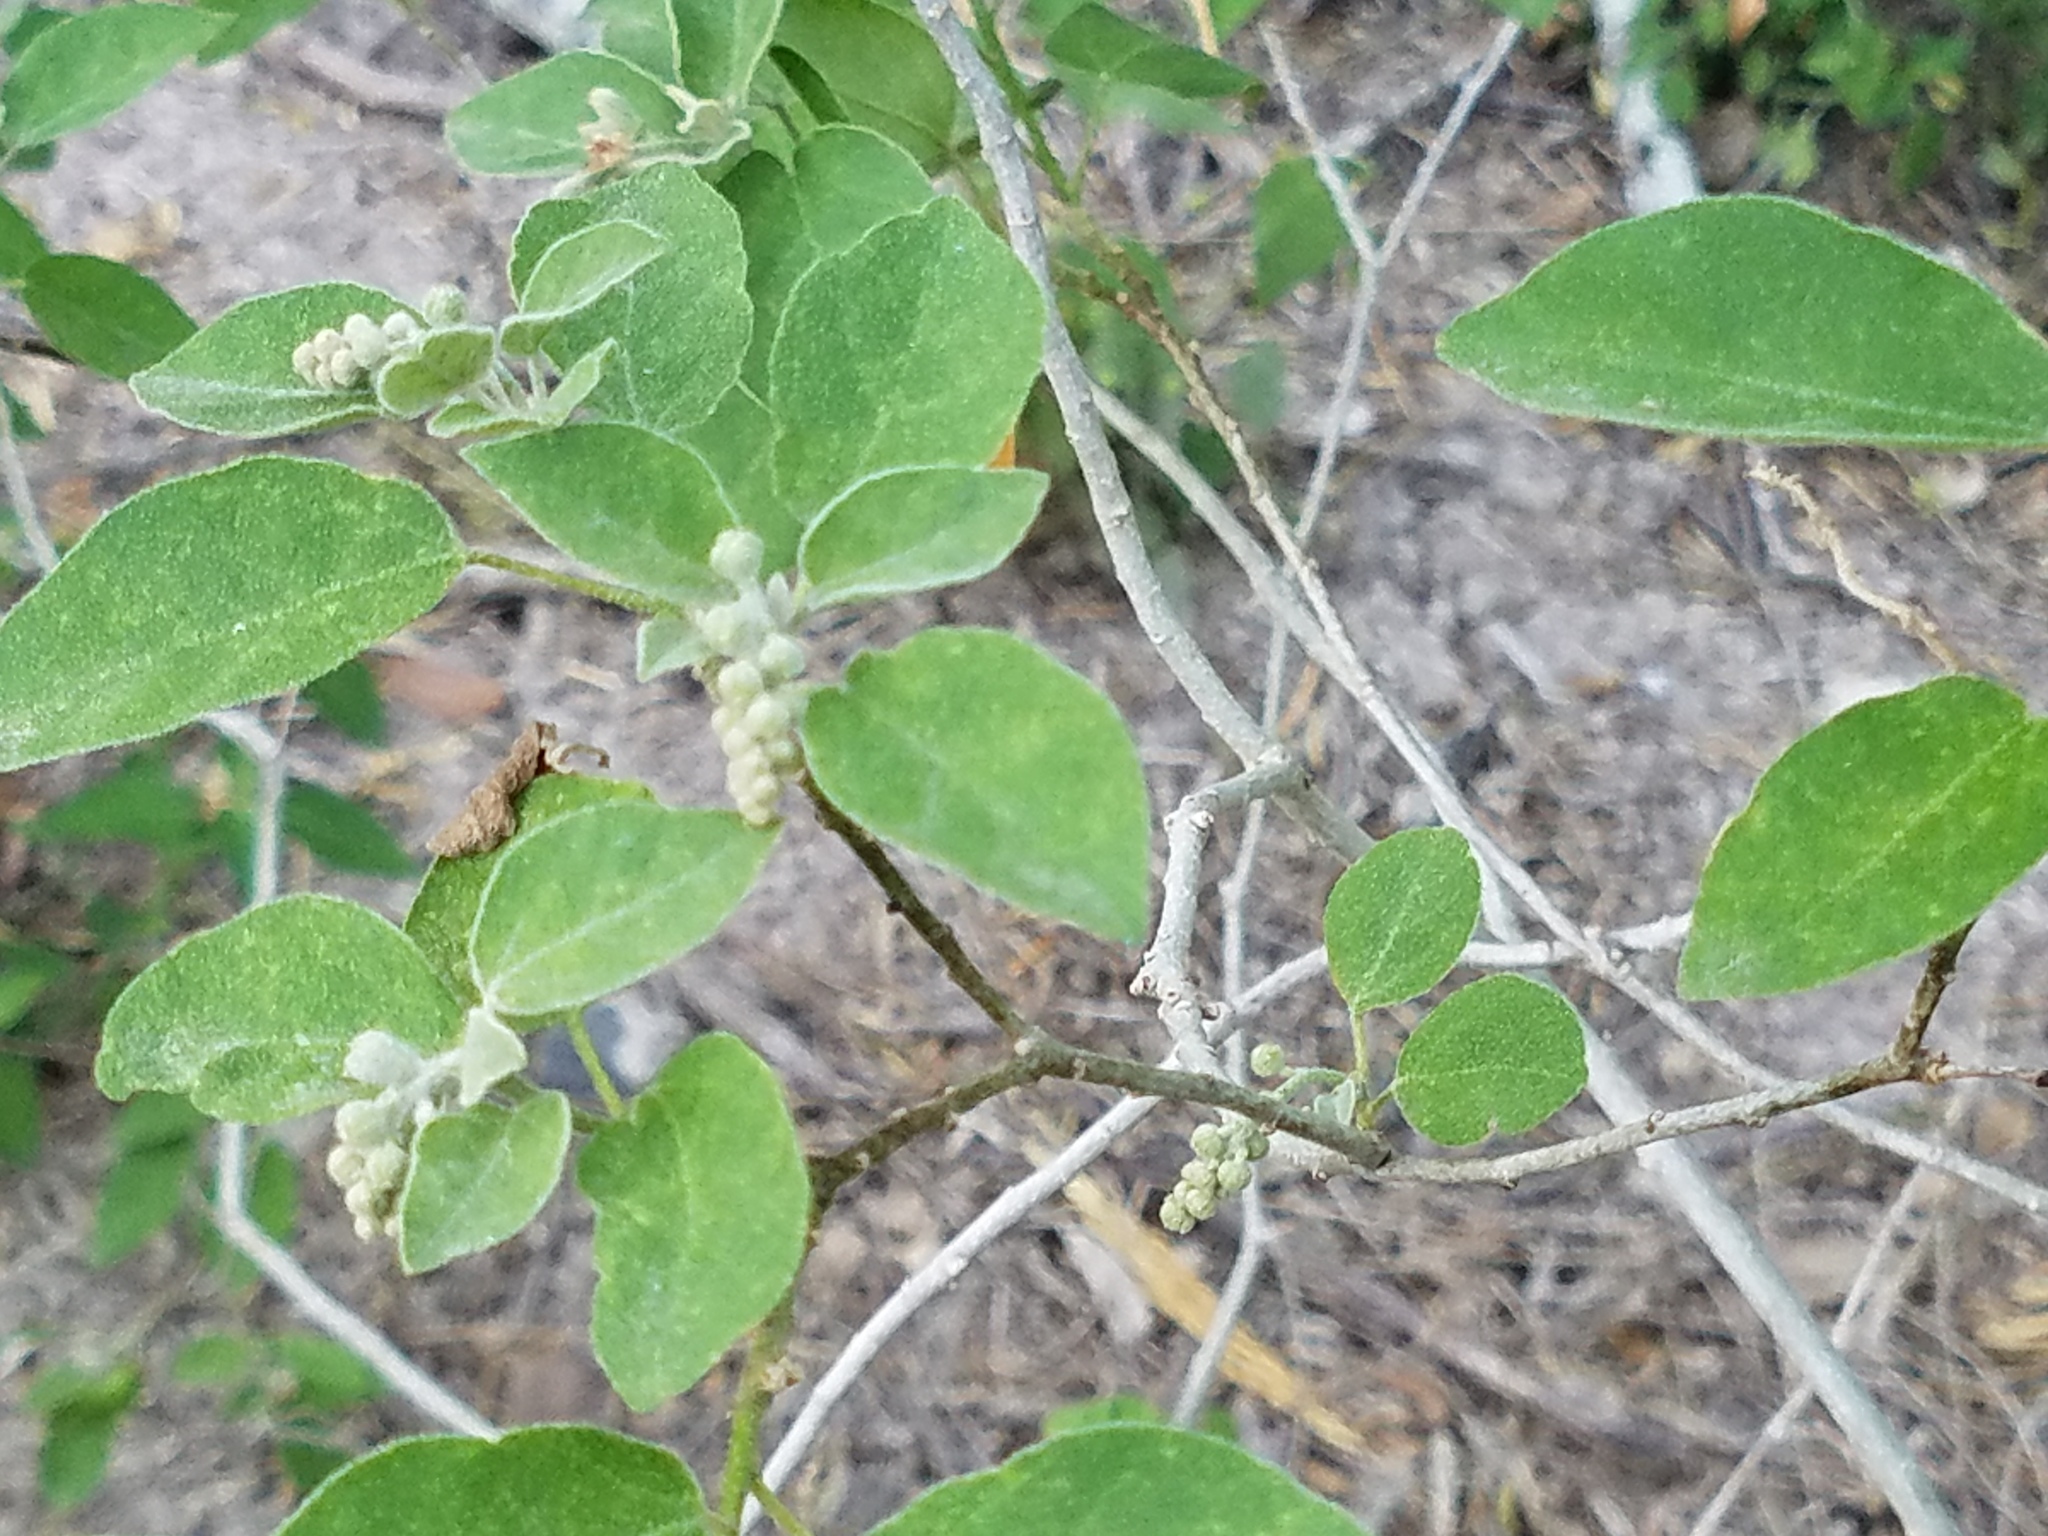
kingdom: Plantae
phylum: Tracheophyta
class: Magnoliopsida
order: Malpighiales
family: Euphorbiaceae
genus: Croton
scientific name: Croton humilis
